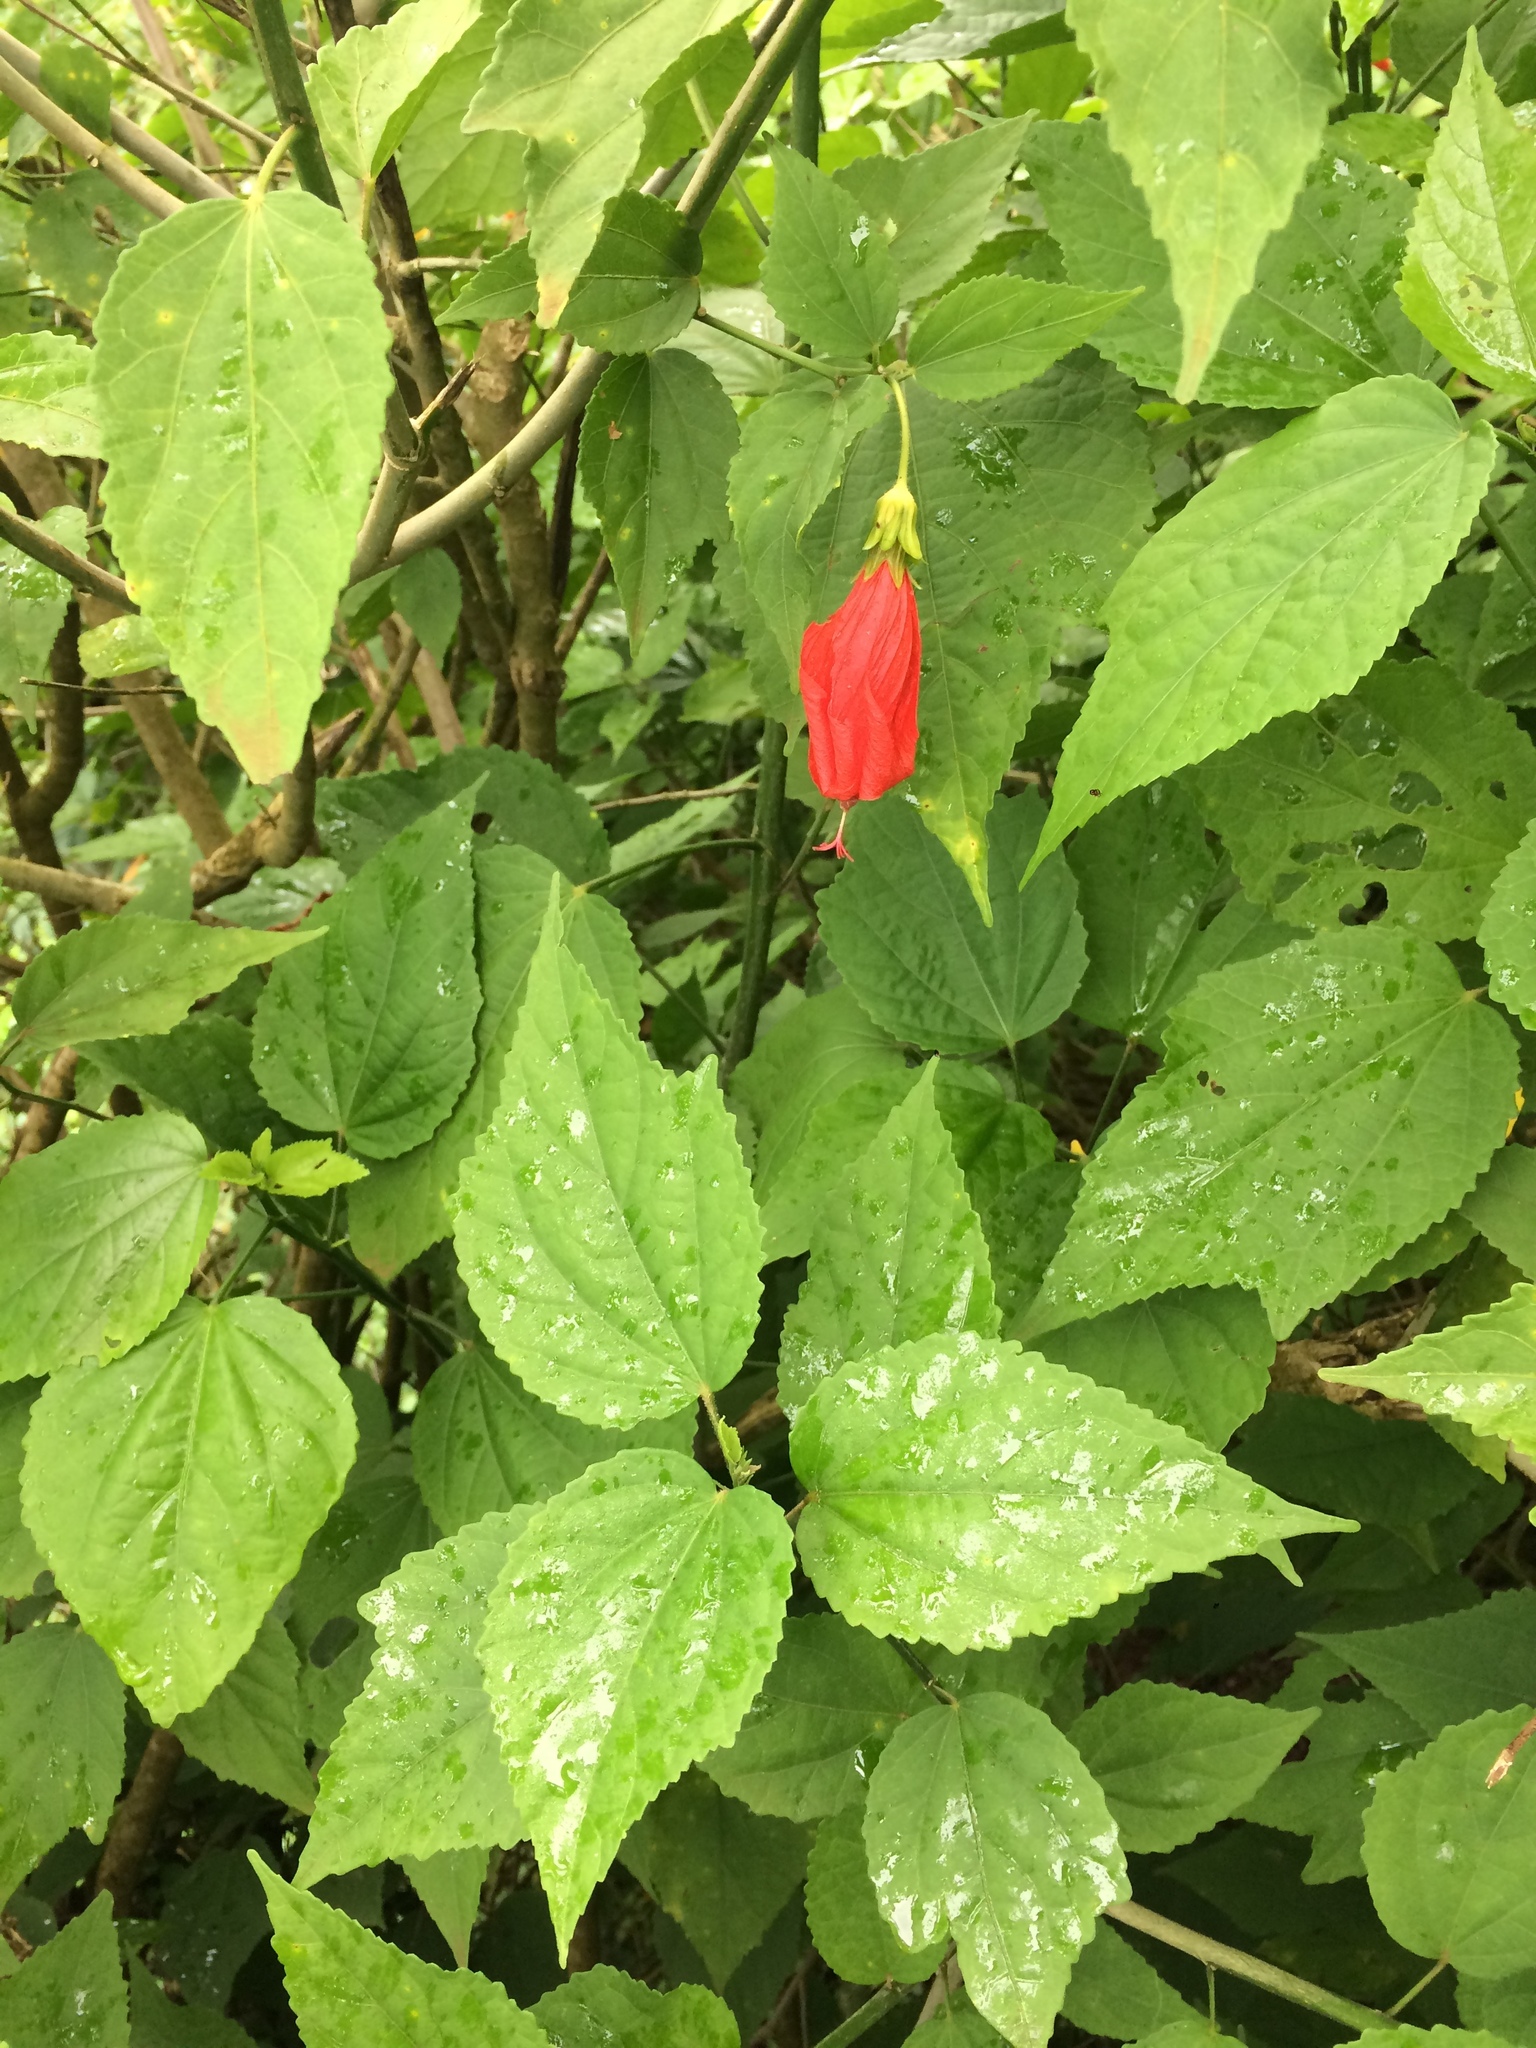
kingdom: Plantae
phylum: Tracheophyta
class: Magnoliopsida
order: Malvales
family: Malvaceae
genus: Malvaviscus
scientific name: Malvaviscus penduliflorus
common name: Mazapan
